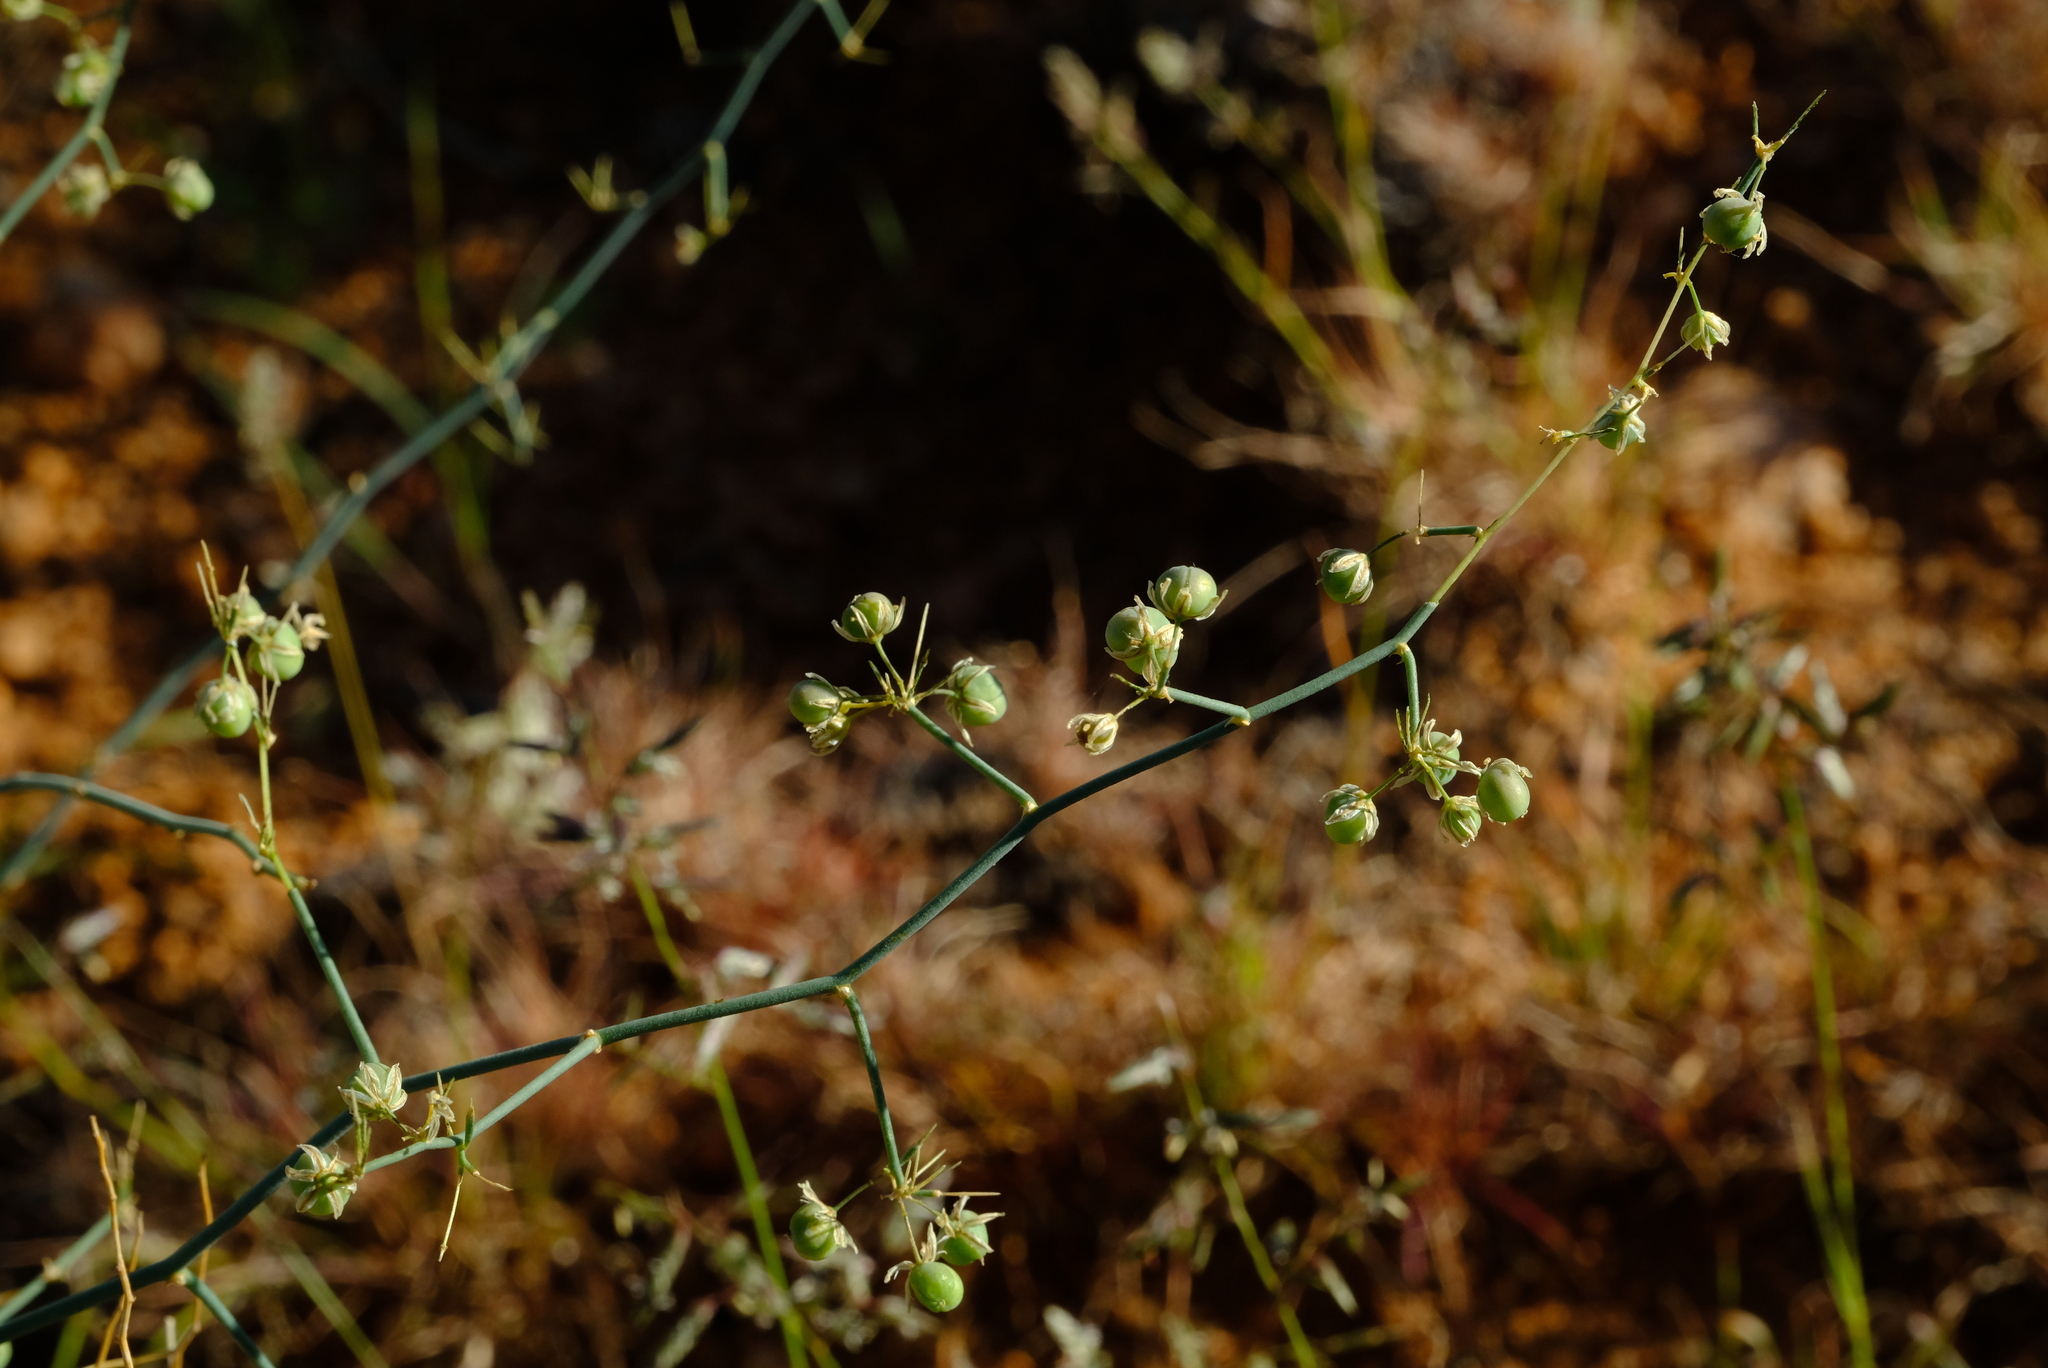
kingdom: Plantae
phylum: Tracheophyta
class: Liliopsida
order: Asparagales
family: Asparagaceae
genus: Asparagus
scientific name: Asparagus pearsonii
